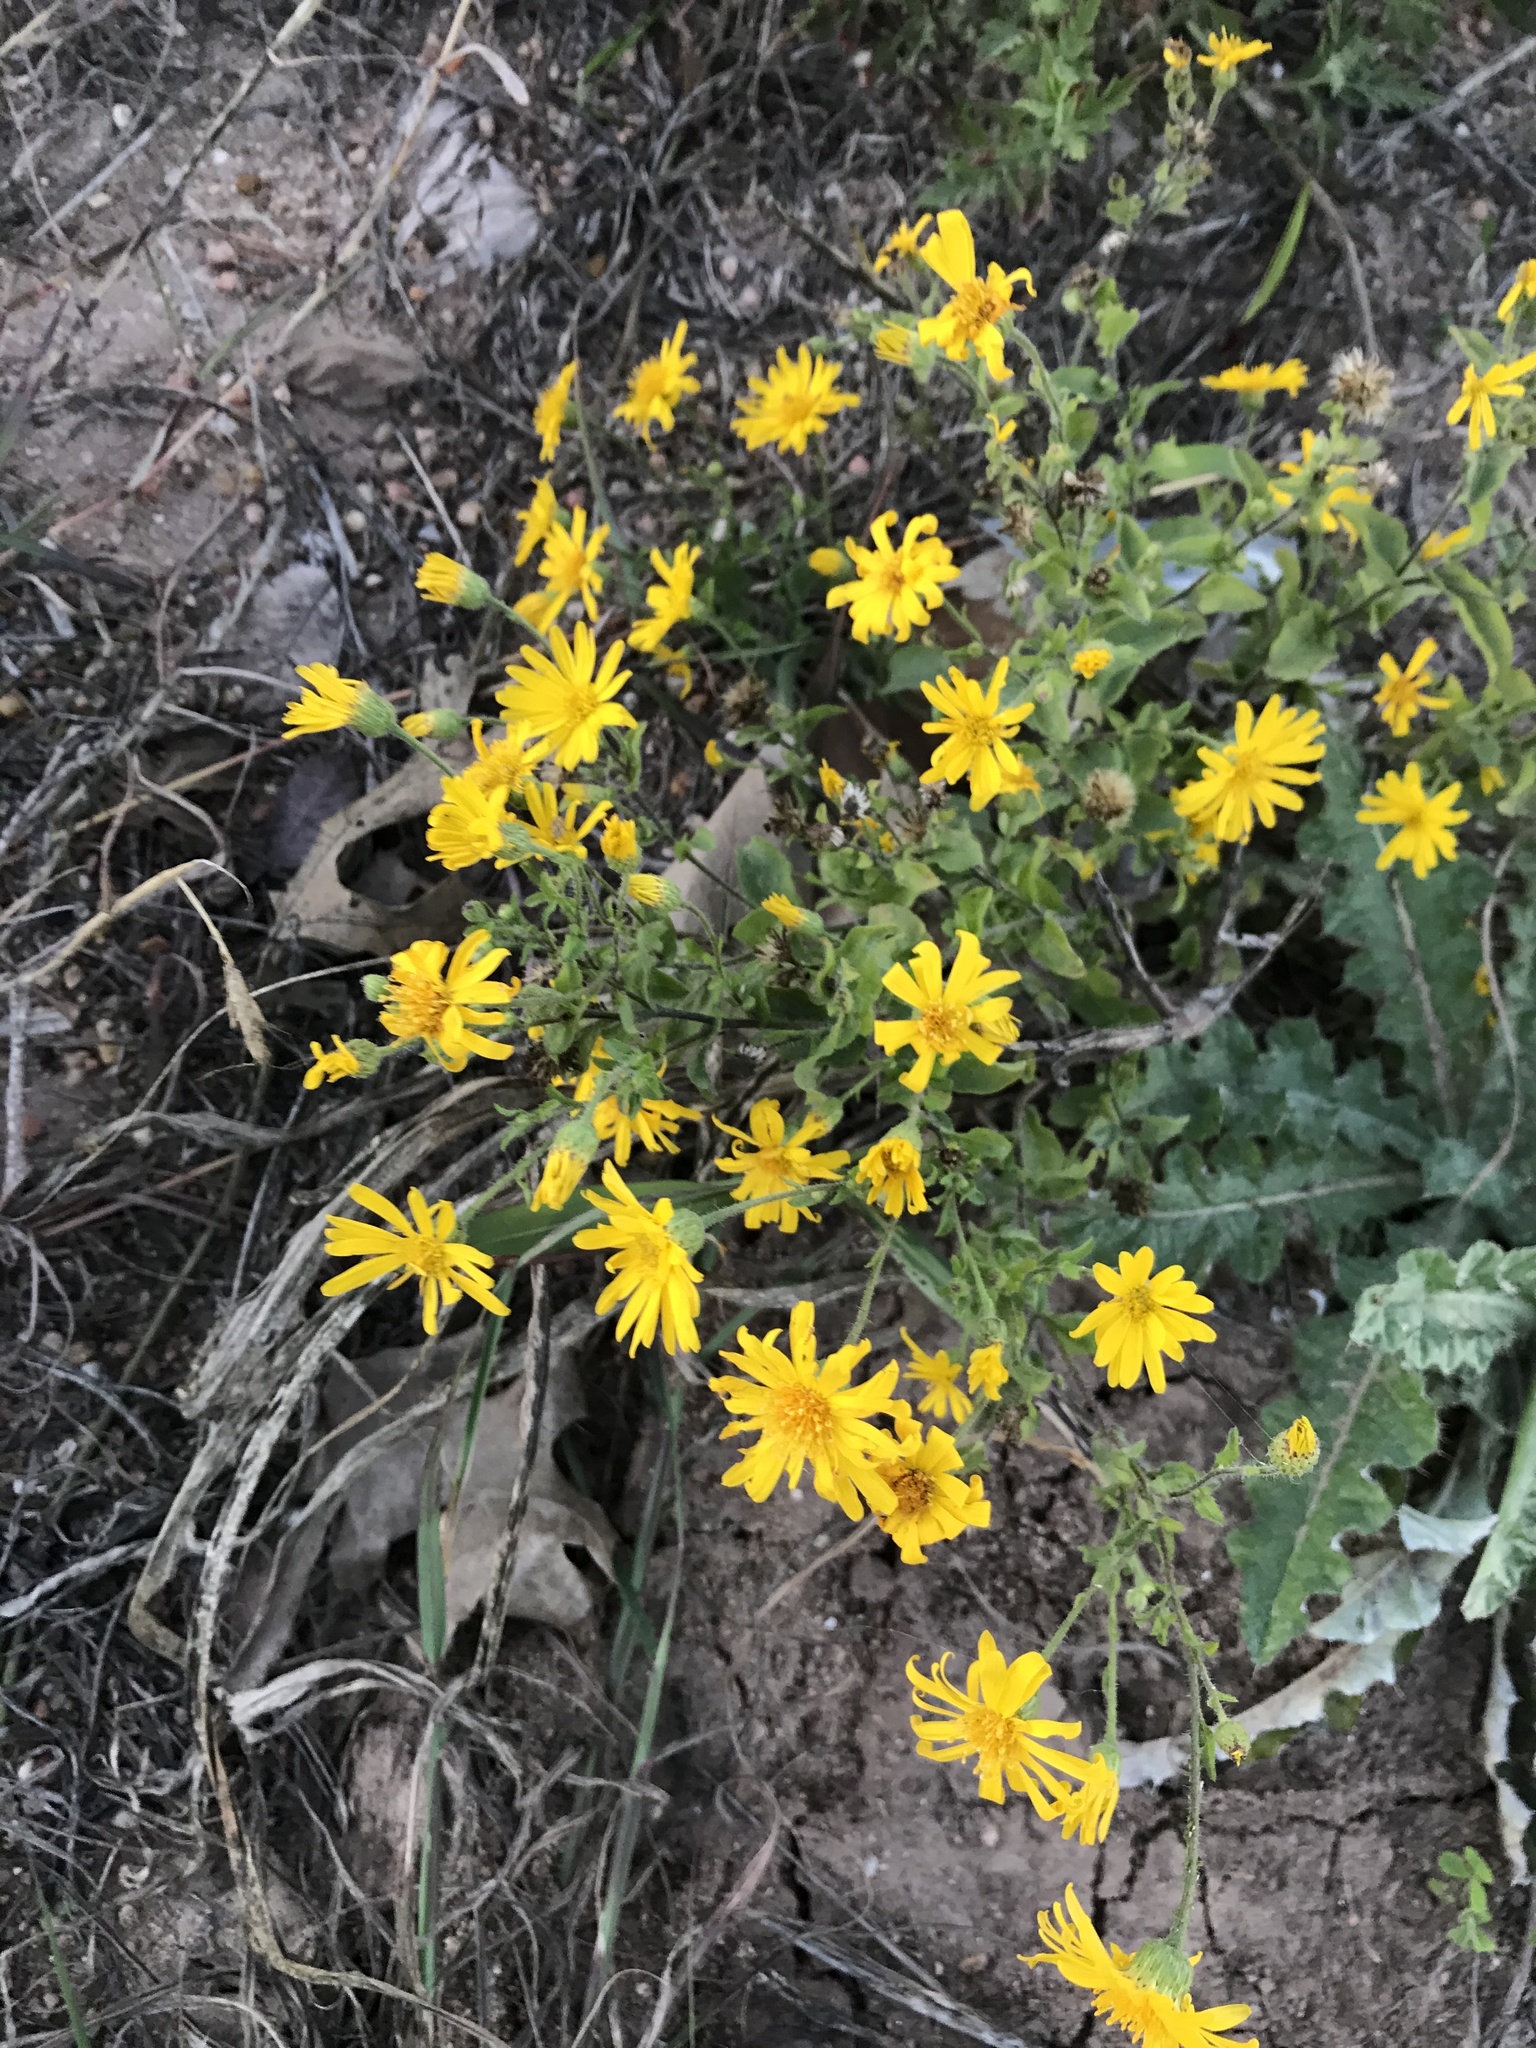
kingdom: Plantae
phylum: Tracheophyta
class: Magnoliopsida
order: Asterales
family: Asteraceae
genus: Heterotheca
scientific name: Heterotheca subaxillaris
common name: Camphorweed
